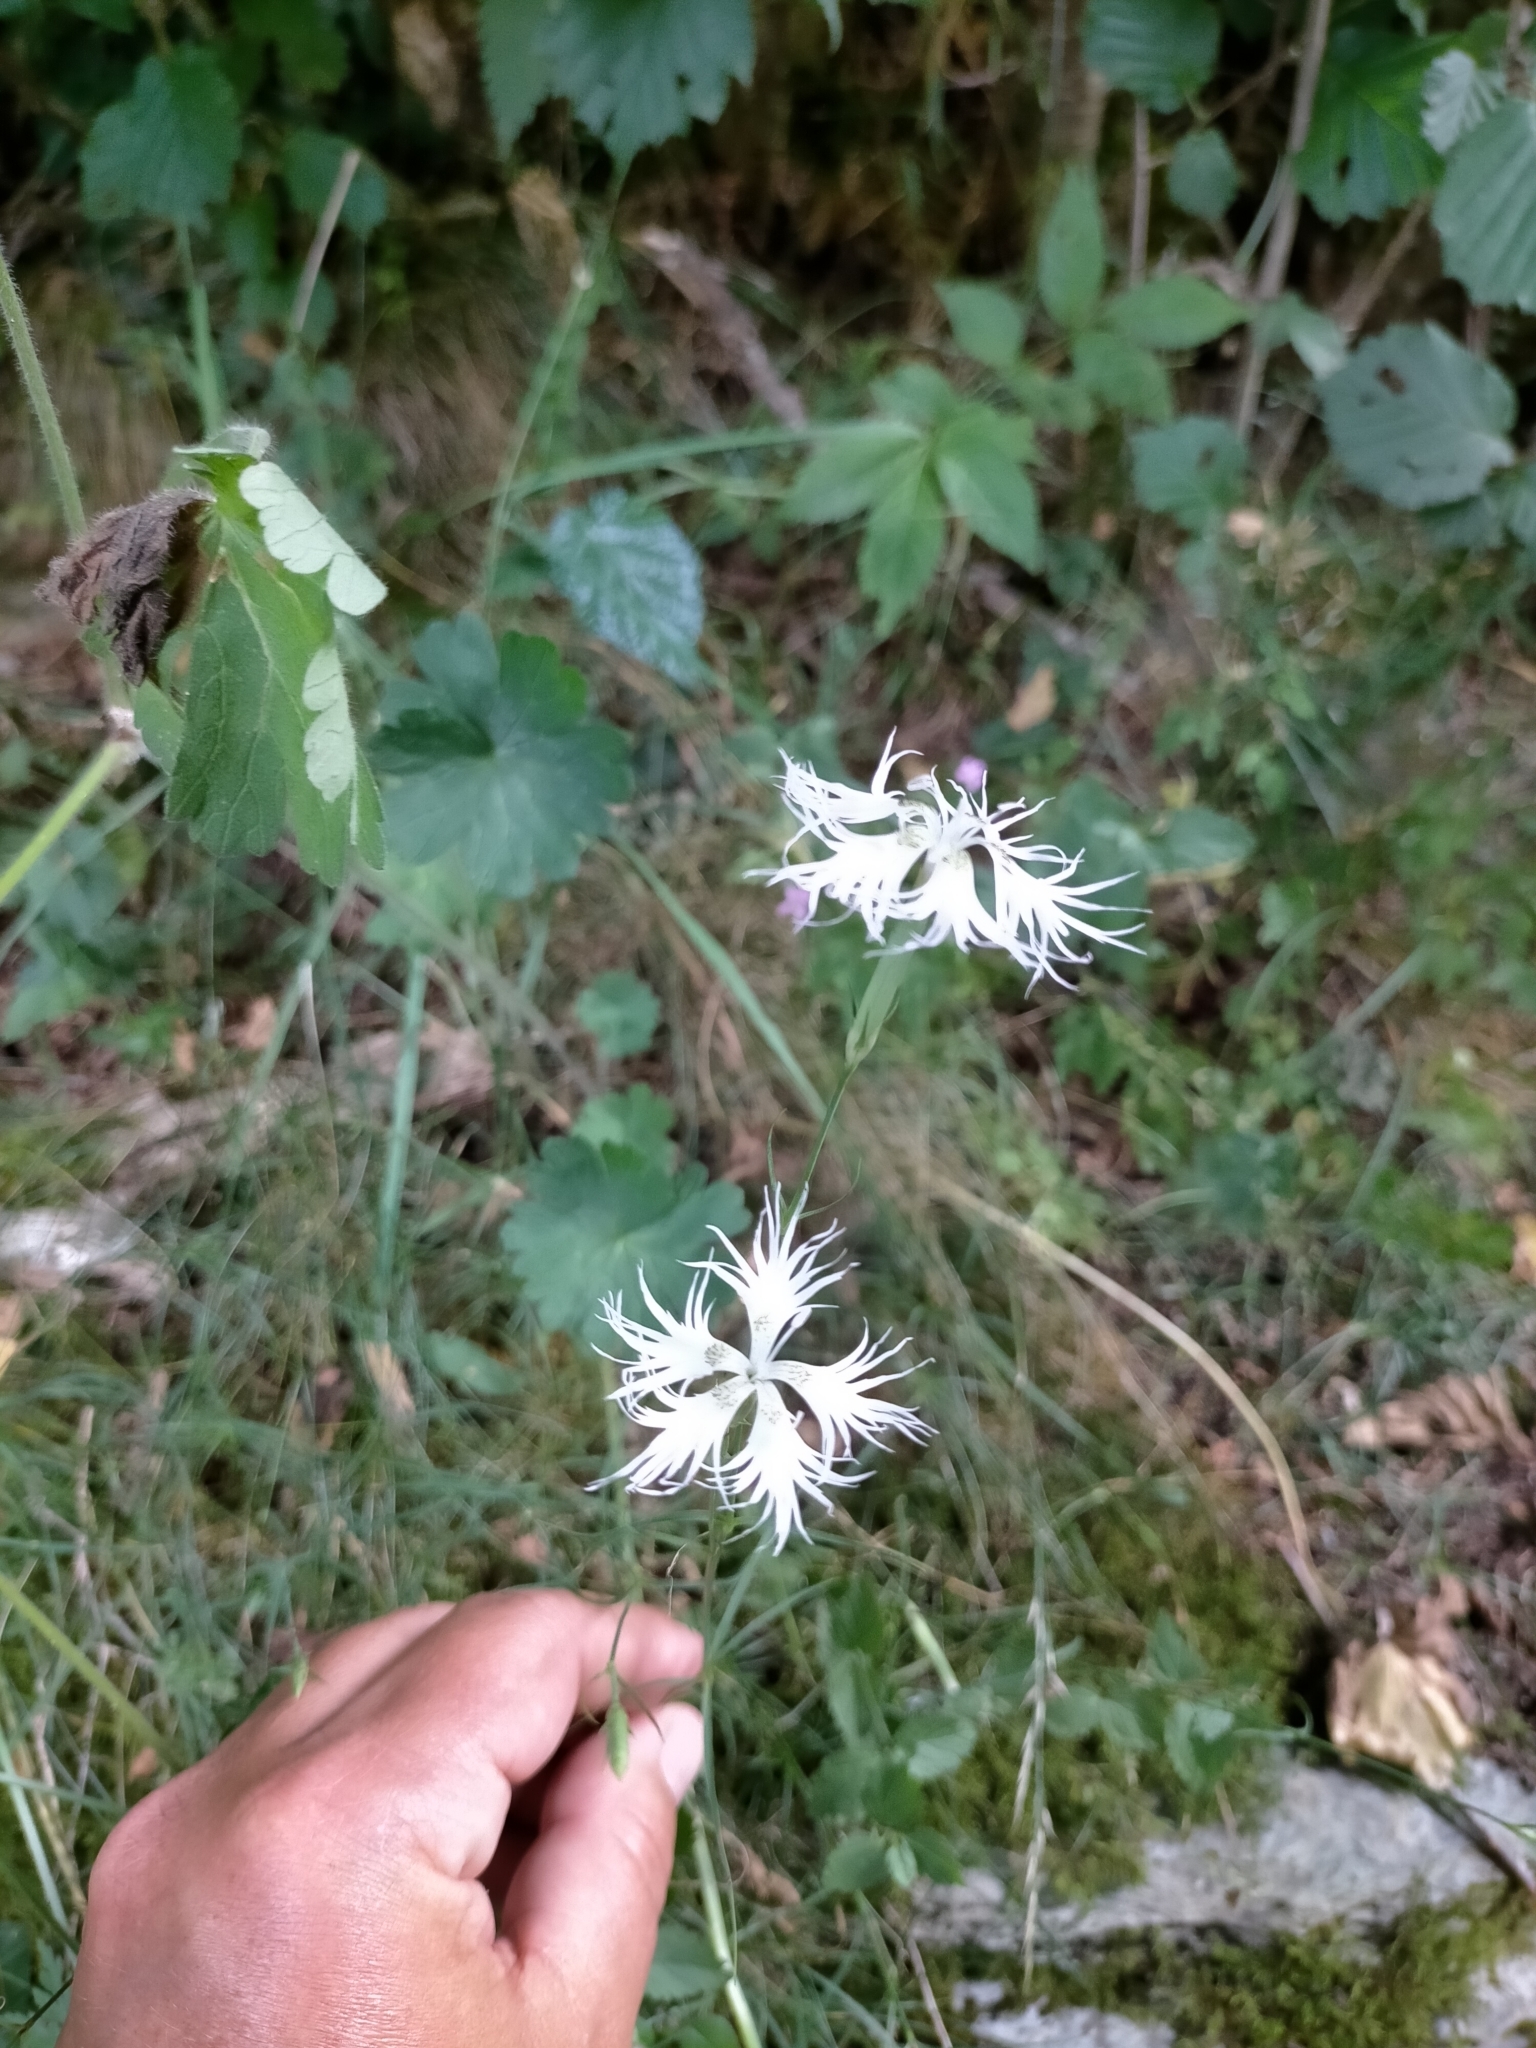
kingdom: Plantae
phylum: Tracheophyta
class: Magnoliopsida
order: Caryophyllales
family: Caryophyllaceae
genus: Dianthus
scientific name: Dianthus hyssopifolius
